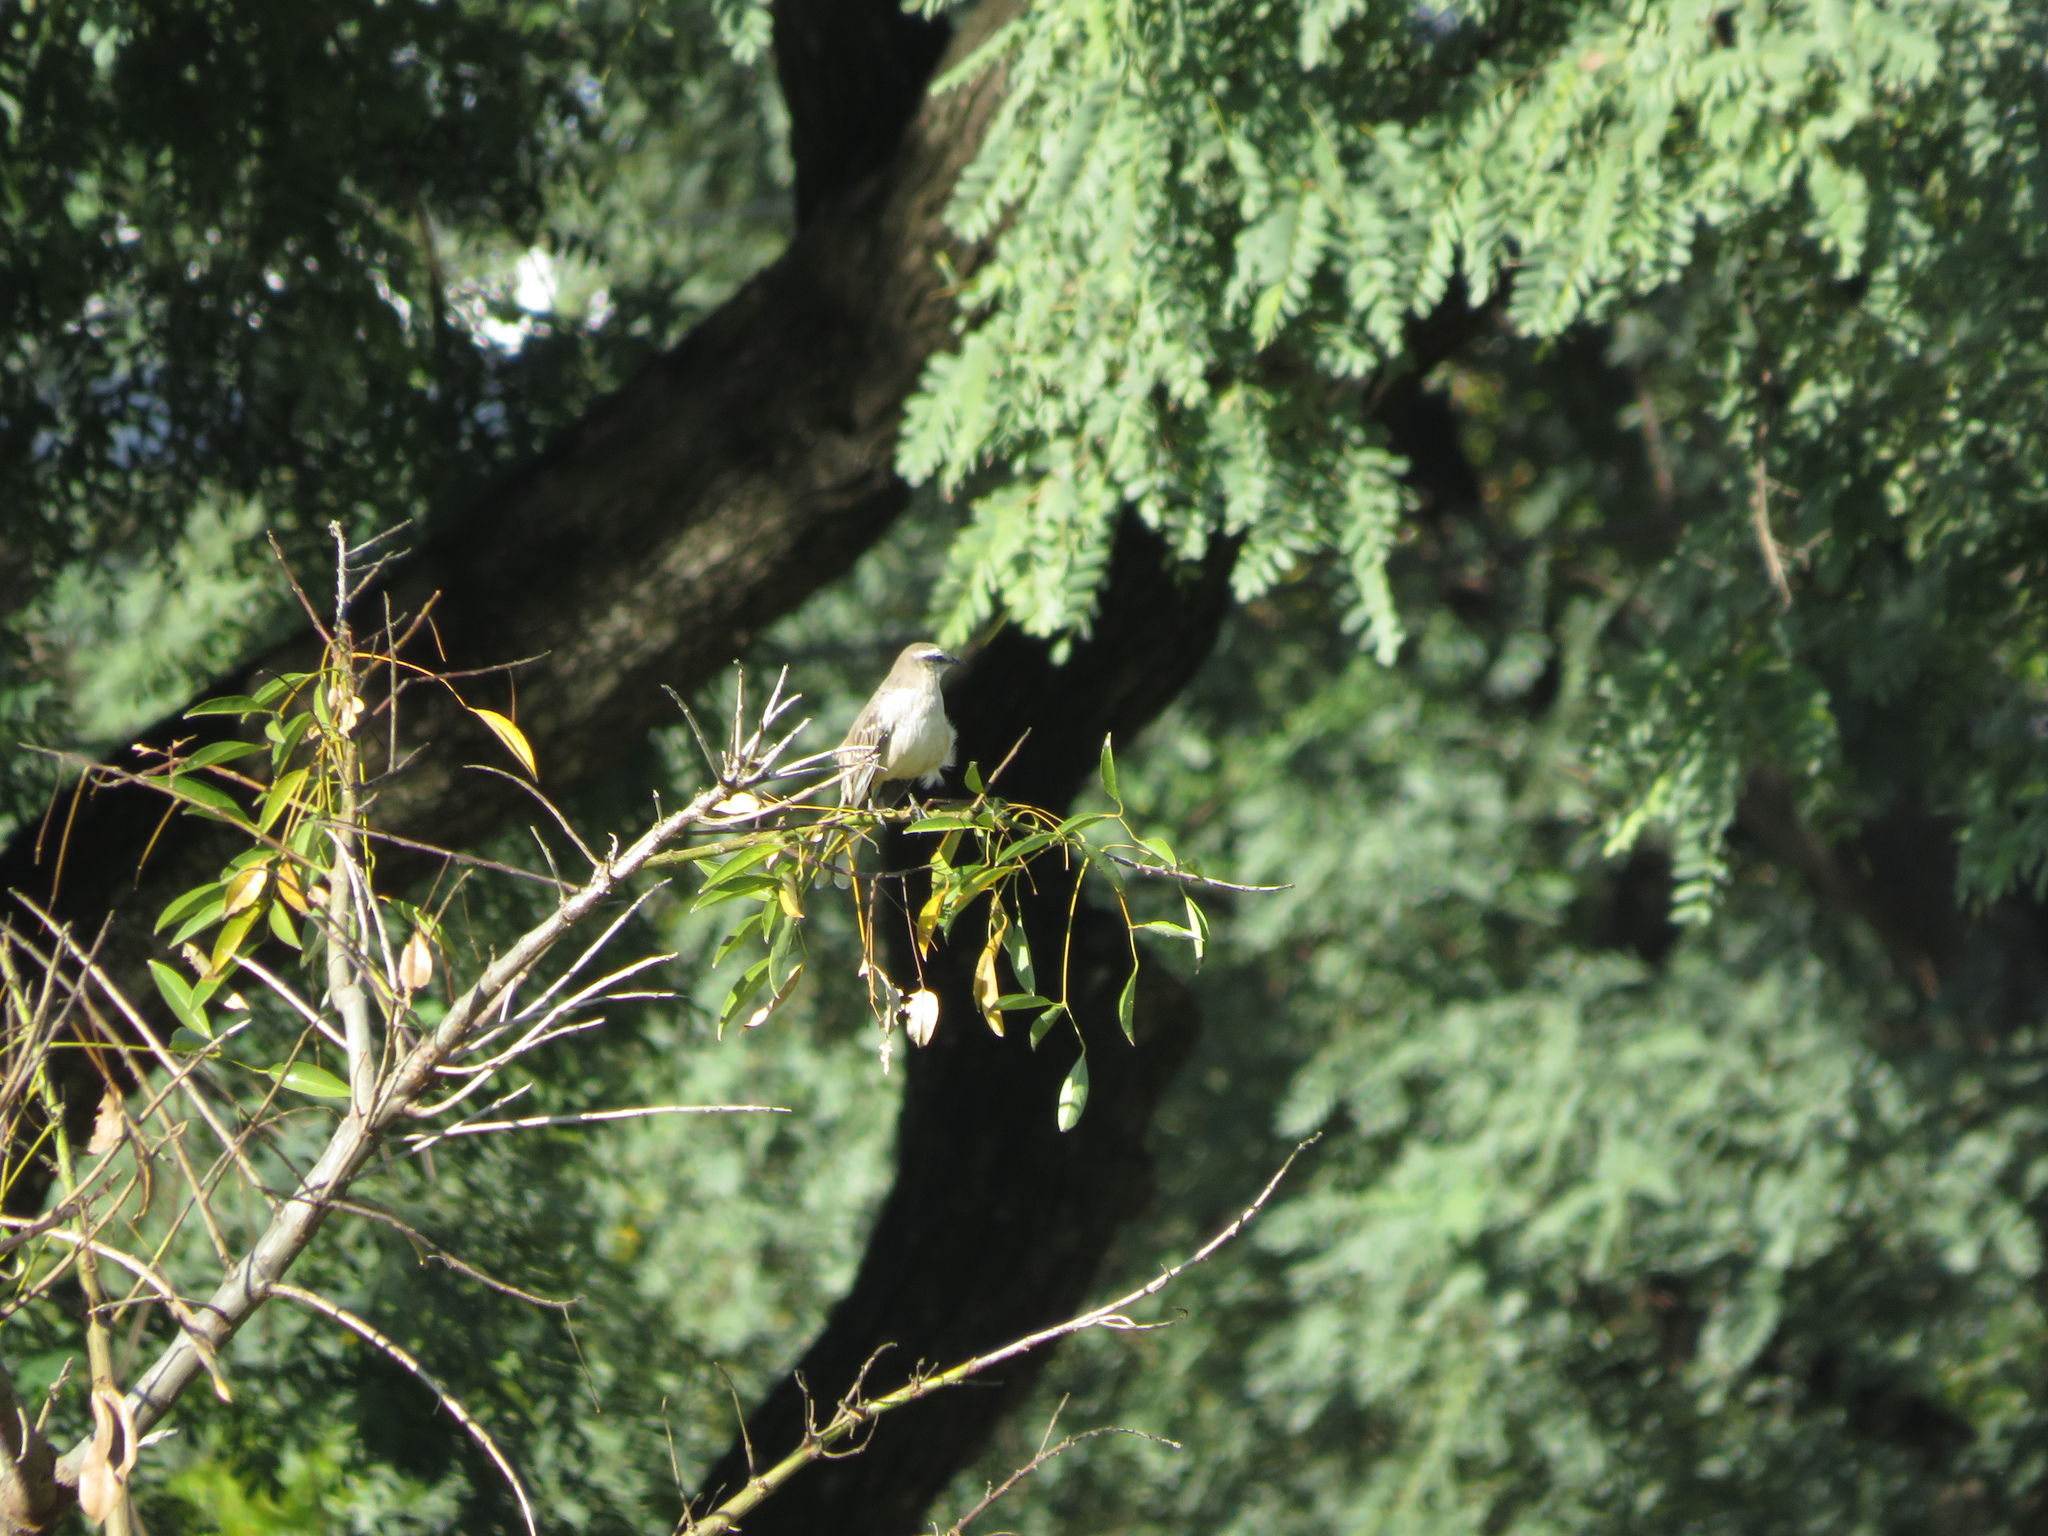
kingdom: Animalia
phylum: Chordata
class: Aves
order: Passeriformes
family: Mimidae
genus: Mimus
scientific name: Mimus saturninus
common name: Chalk-browed mockingbird
